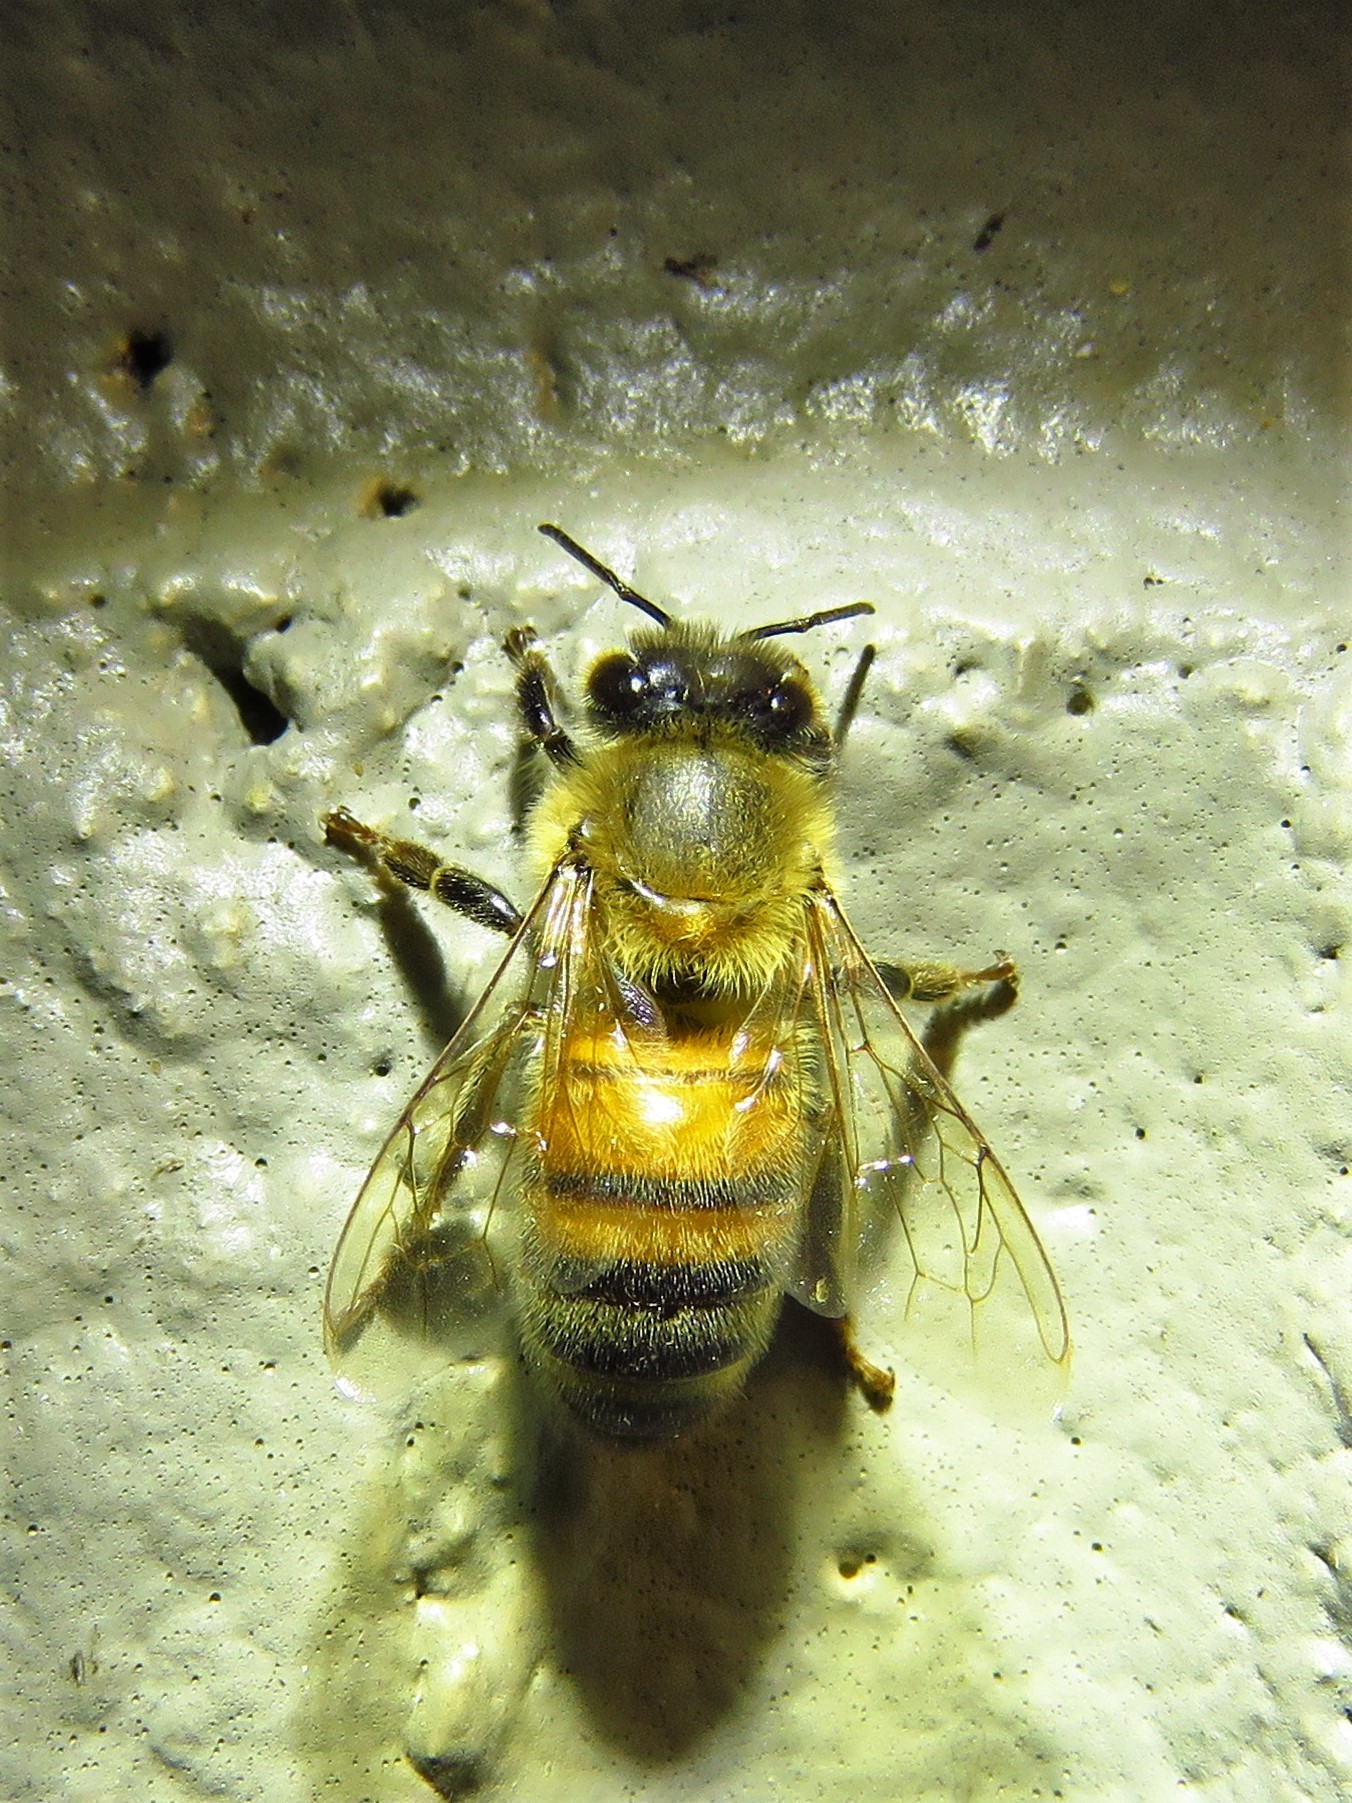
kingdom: Animalia
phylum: Arthropoda
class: Insecta
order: Hymenoptera
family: Apidae
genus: Apis
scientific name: Apis mellifera
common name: Honey bee
